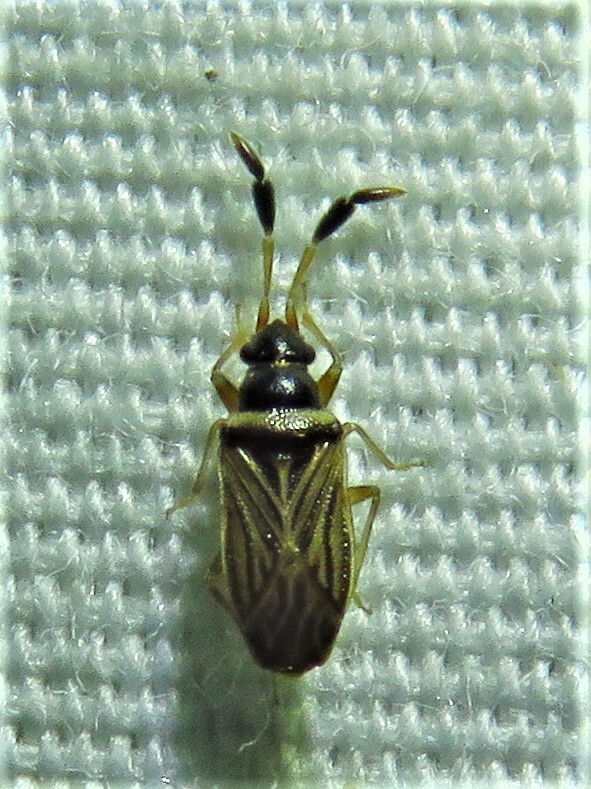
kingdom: Animalia
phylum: Arthropoda
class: Insecta
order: Hemiptera
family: Rhyparochromidae
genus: Ptochiomera
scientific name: Ptochiomera nodosa
